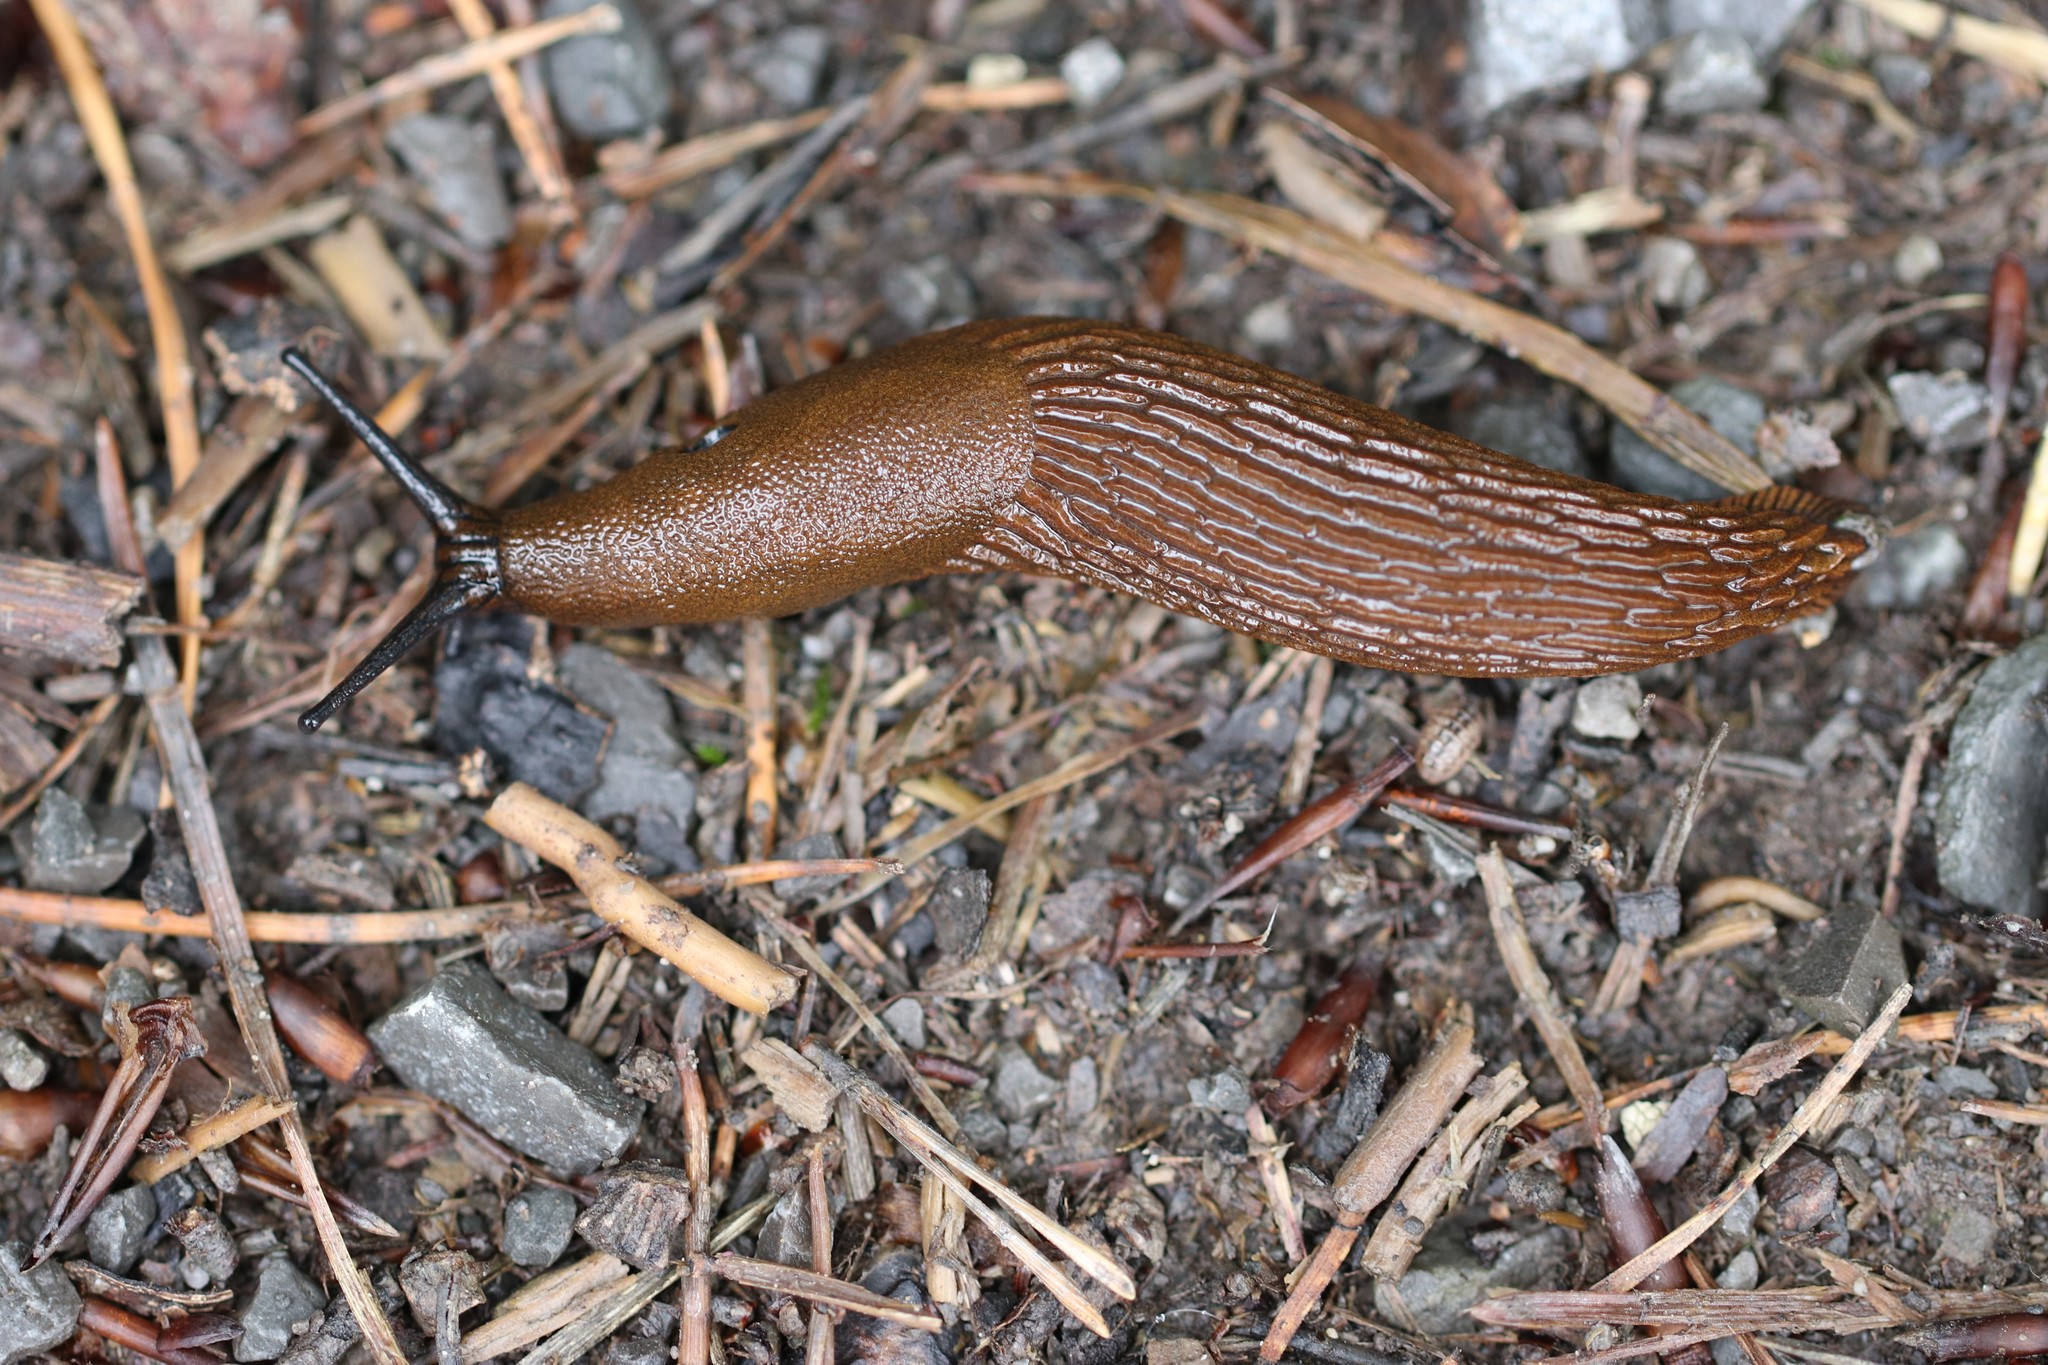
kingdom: Animalia
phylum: Mollusca
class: Gastropoda
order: Stylommatophora
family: Arionidae
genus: Arion
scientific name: Arion
